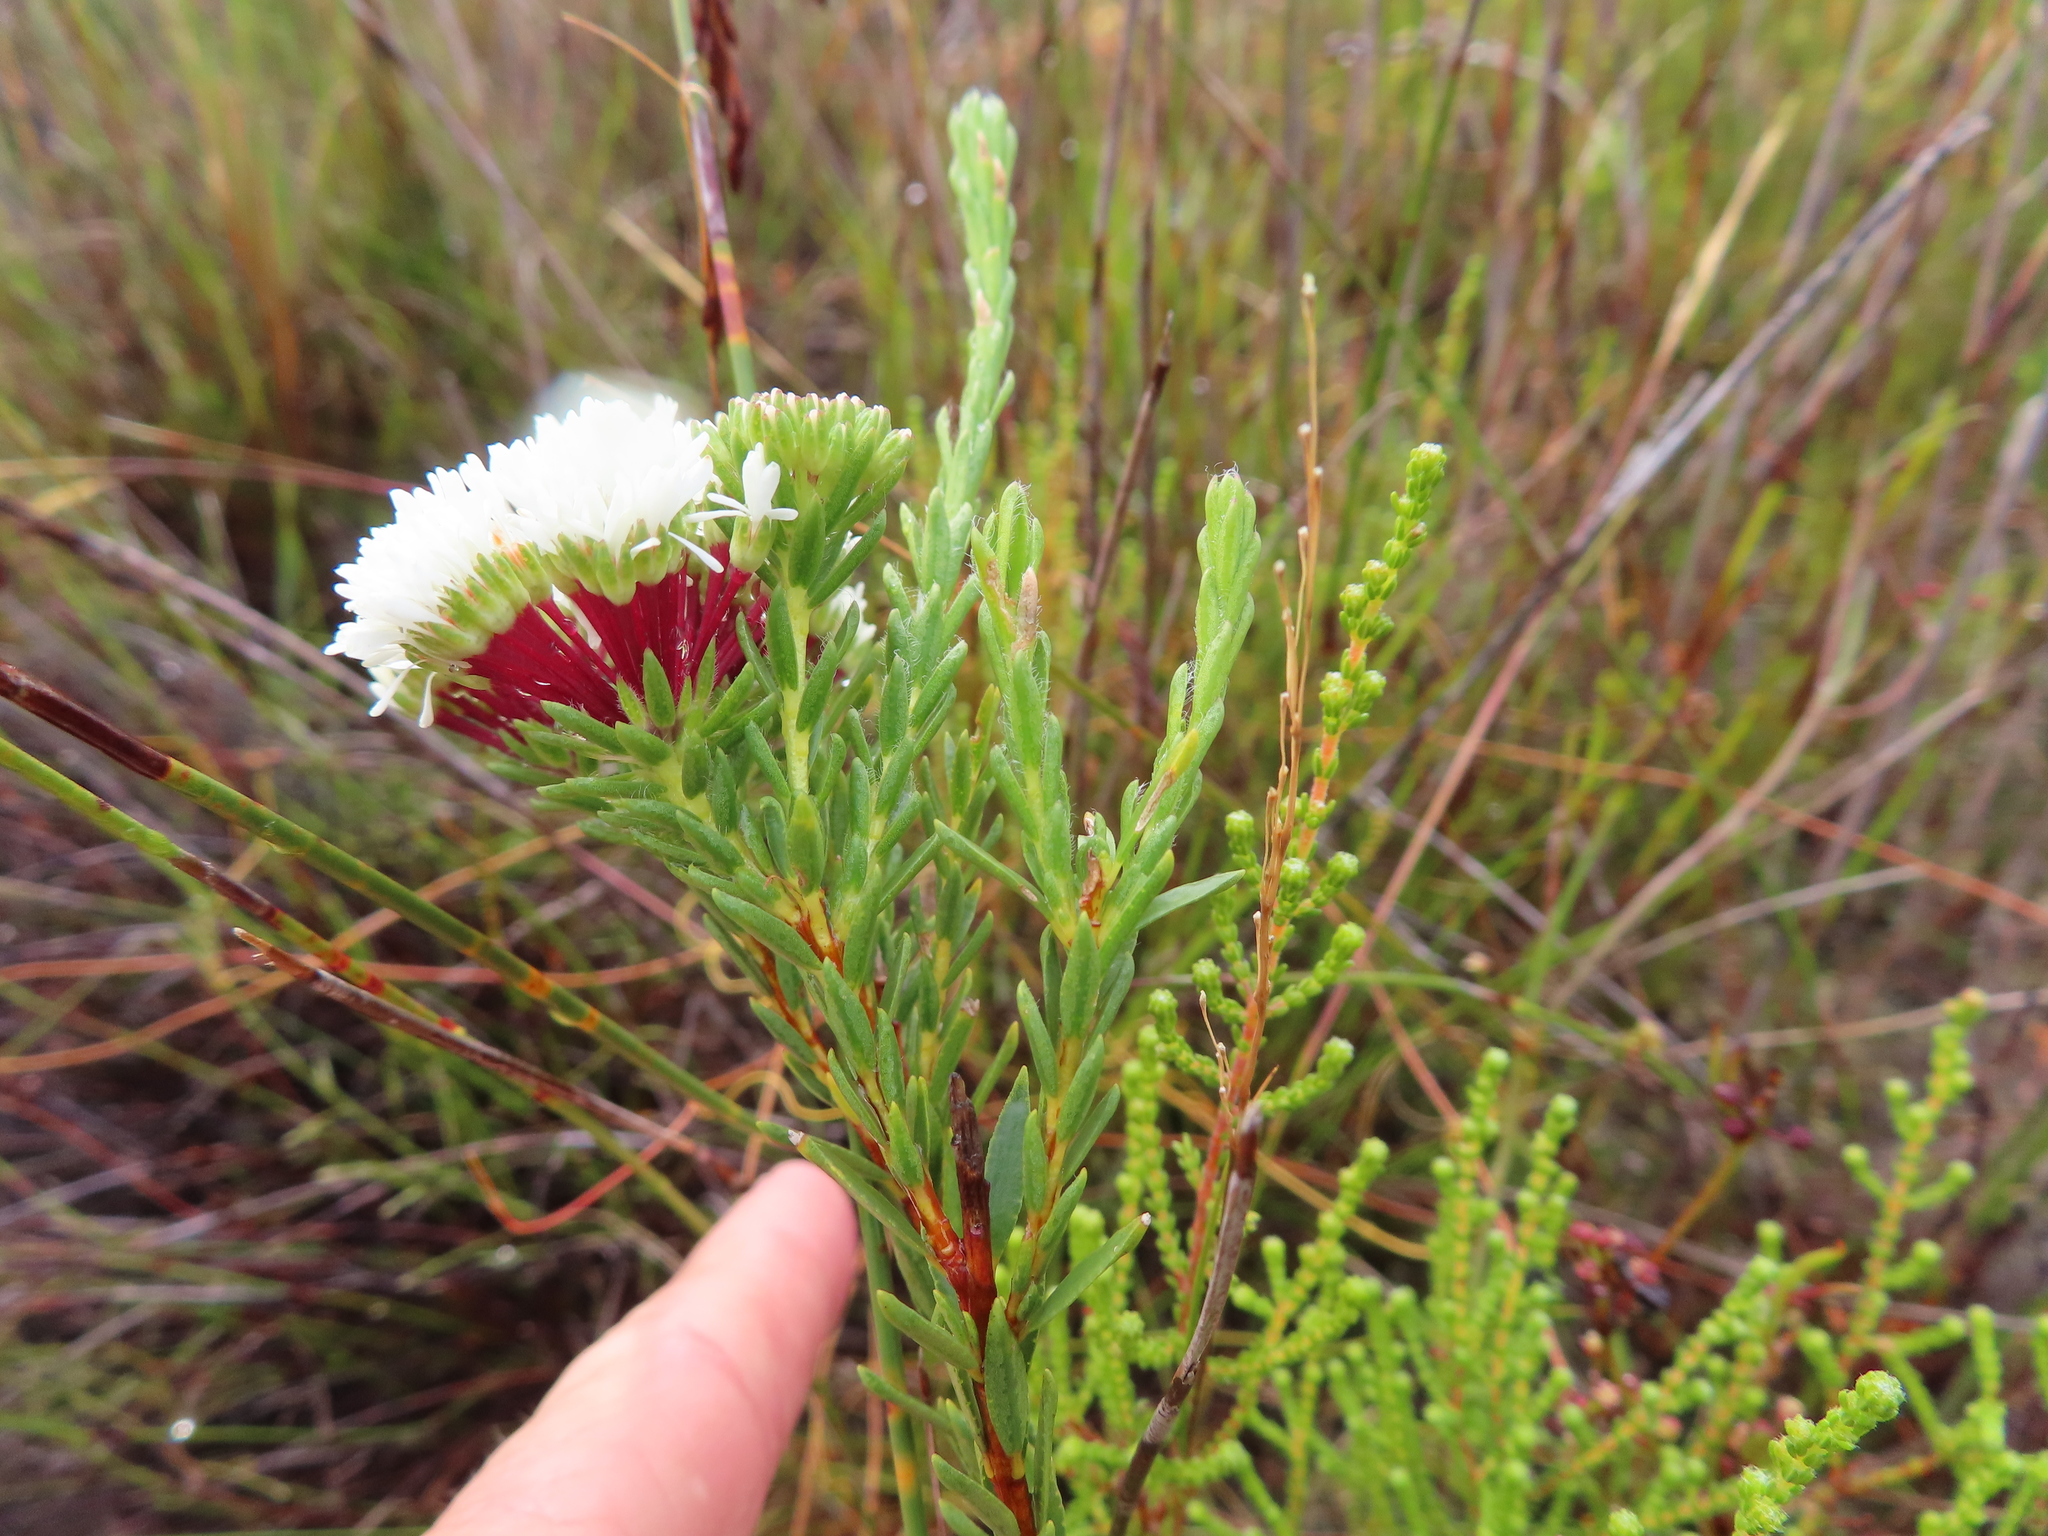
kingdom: Plantae
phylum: Tracheophyta
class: Magnoliopsida
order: Sapindales
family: Rutaceae
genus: Agathosma
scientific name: Agathosma bifida
